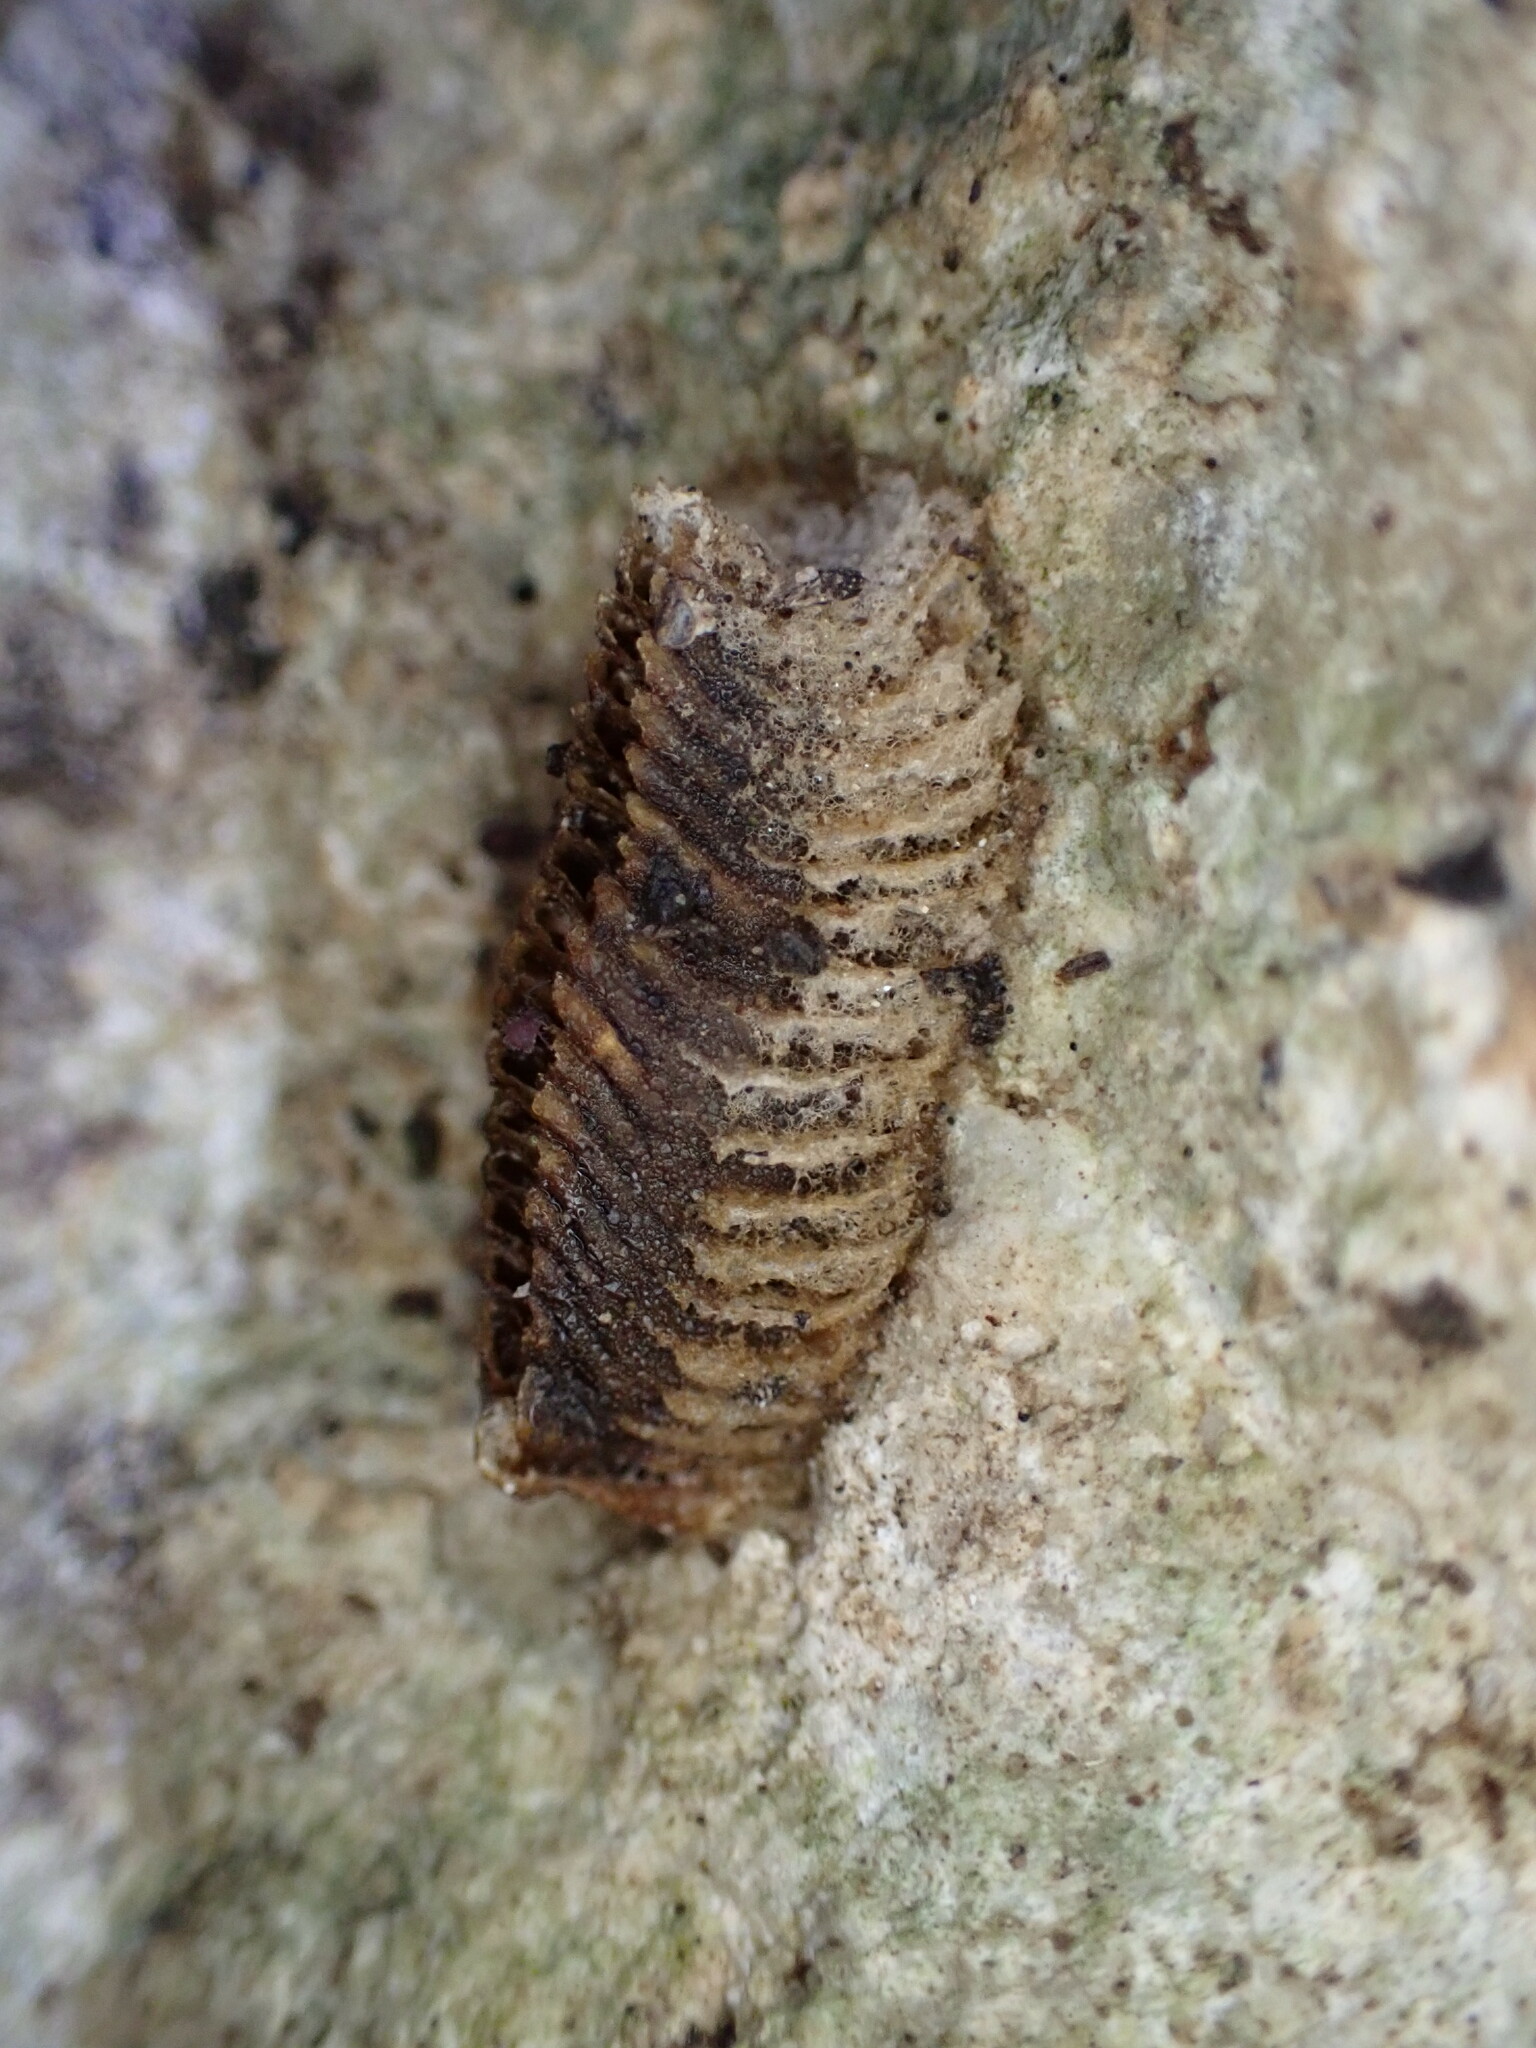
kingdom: Animalia
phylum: Arthropoda
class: Insecta
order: Mantodea
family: Eremiaphilidae
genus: Iris
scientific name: Iris oratoria
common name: Mediterranean mantis
